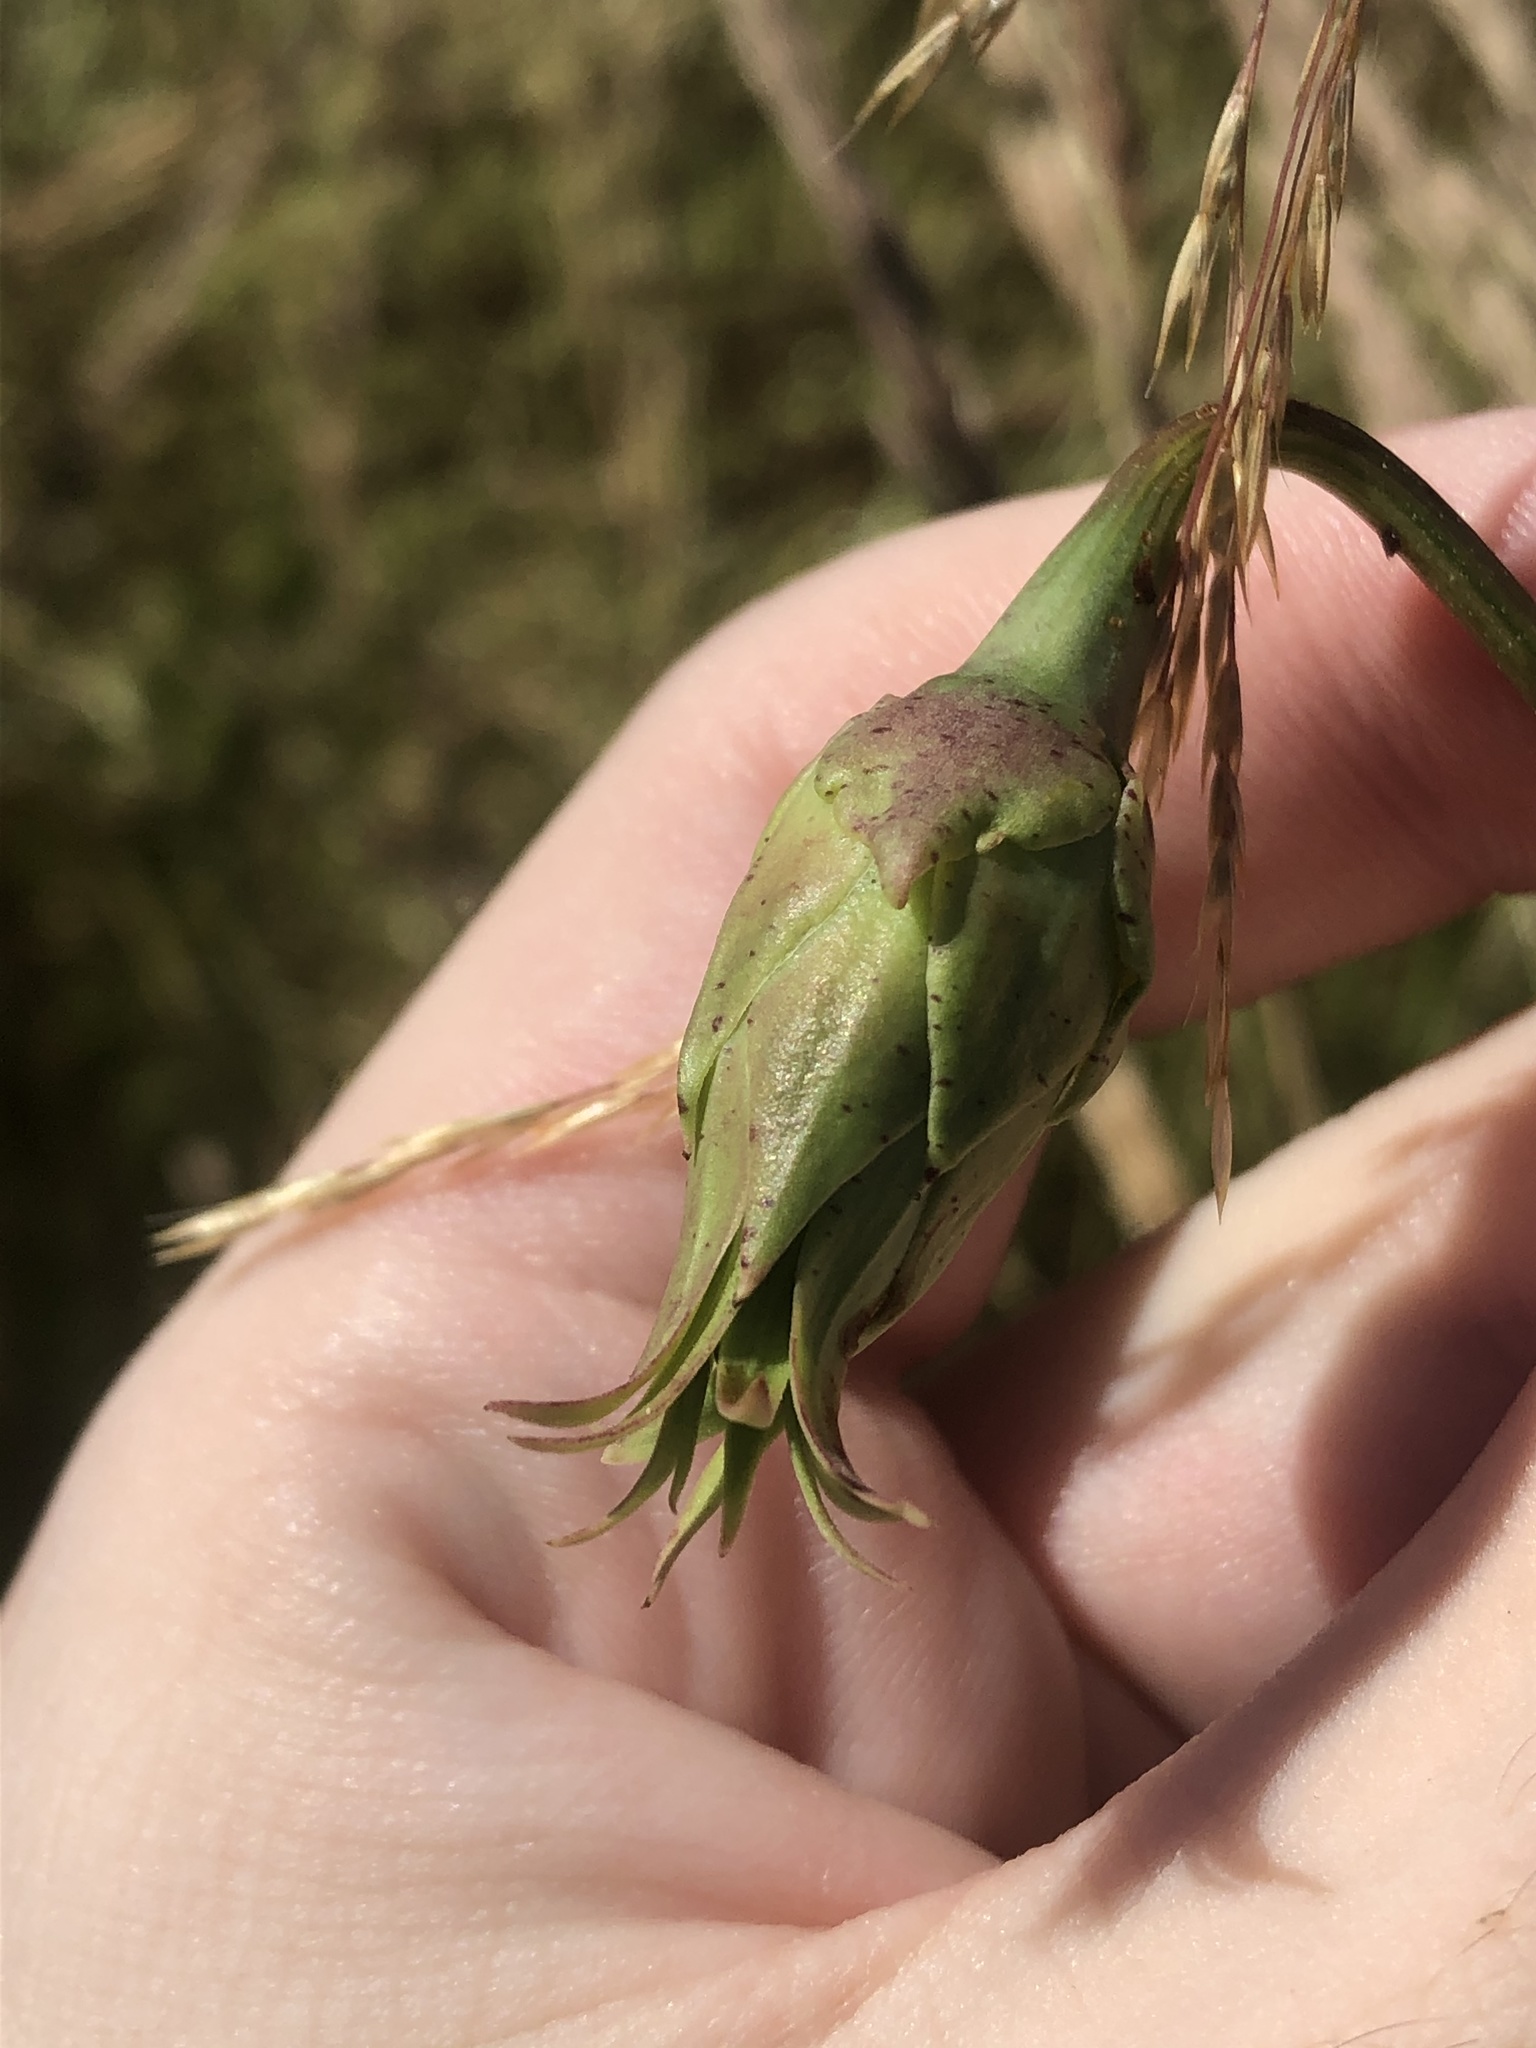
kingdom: Plantae
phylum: Tracheophyta
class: Magnoliopsida
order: Asterales
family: Asteraceae
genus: Microseris
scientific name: Microseris laciniata
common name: Cut-leaf microseris
